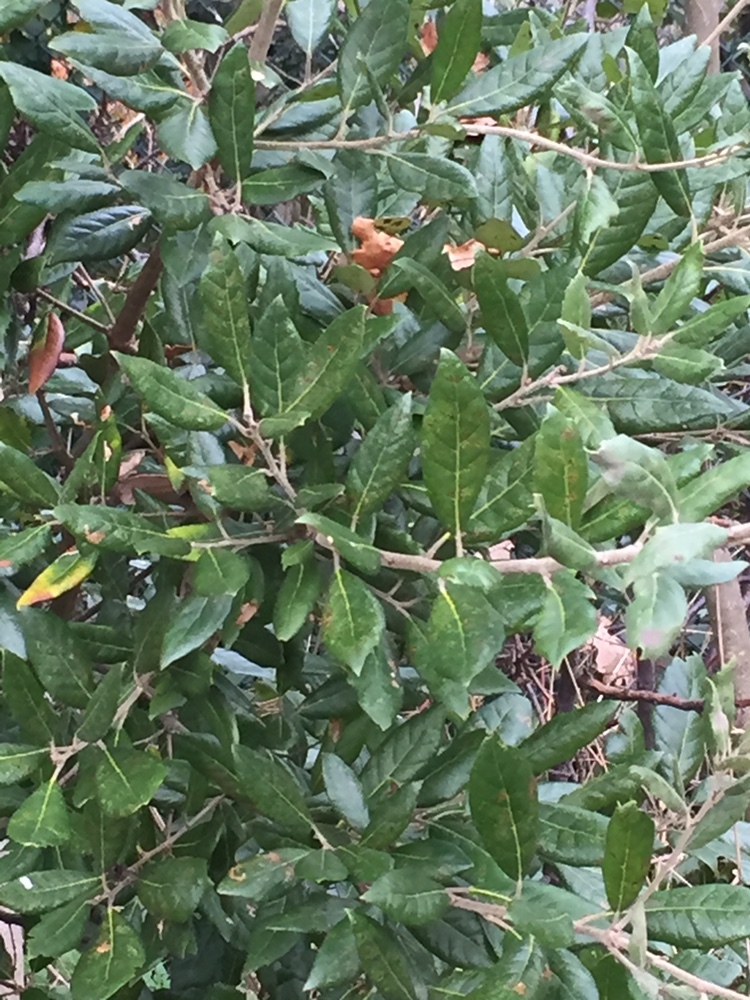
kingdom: Plantae
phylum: Tracheophyta
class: Magnoliopsida
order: Fagales
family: Fagaceae
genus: Quercus
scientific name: Quercus ilex
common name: Evergreen oak
